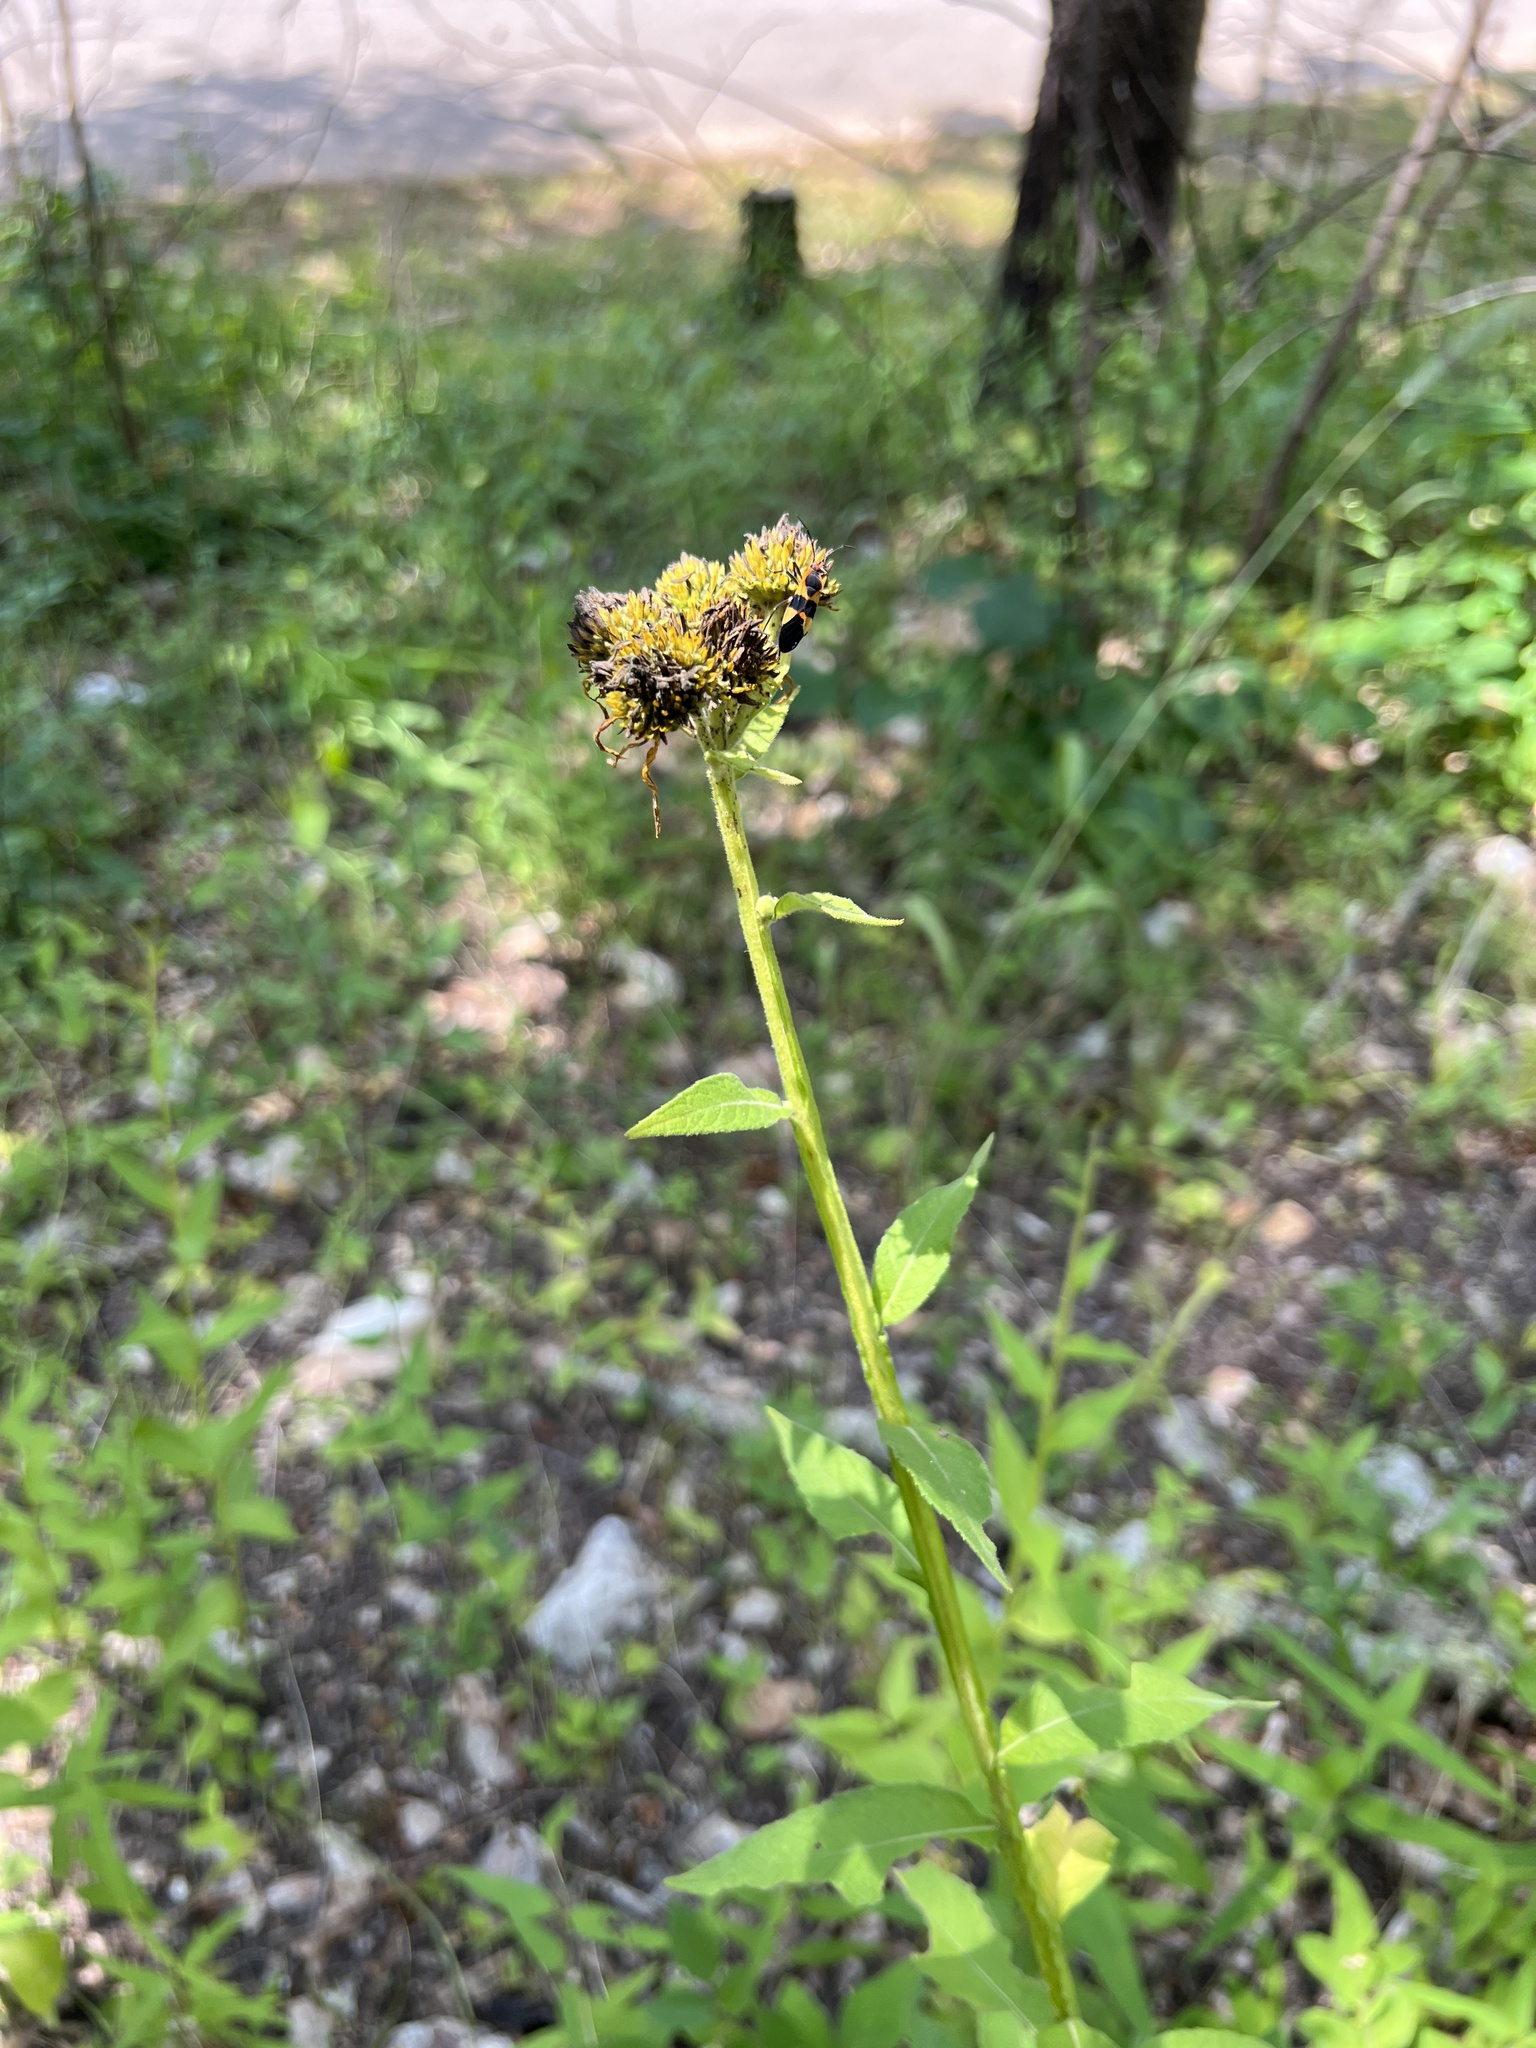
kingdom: Plantae
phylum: Tracheophyta
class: Magnoliopsida
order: Asterales
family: Asteraceae
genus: Verbesina
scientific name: Verbesina helianthoides
